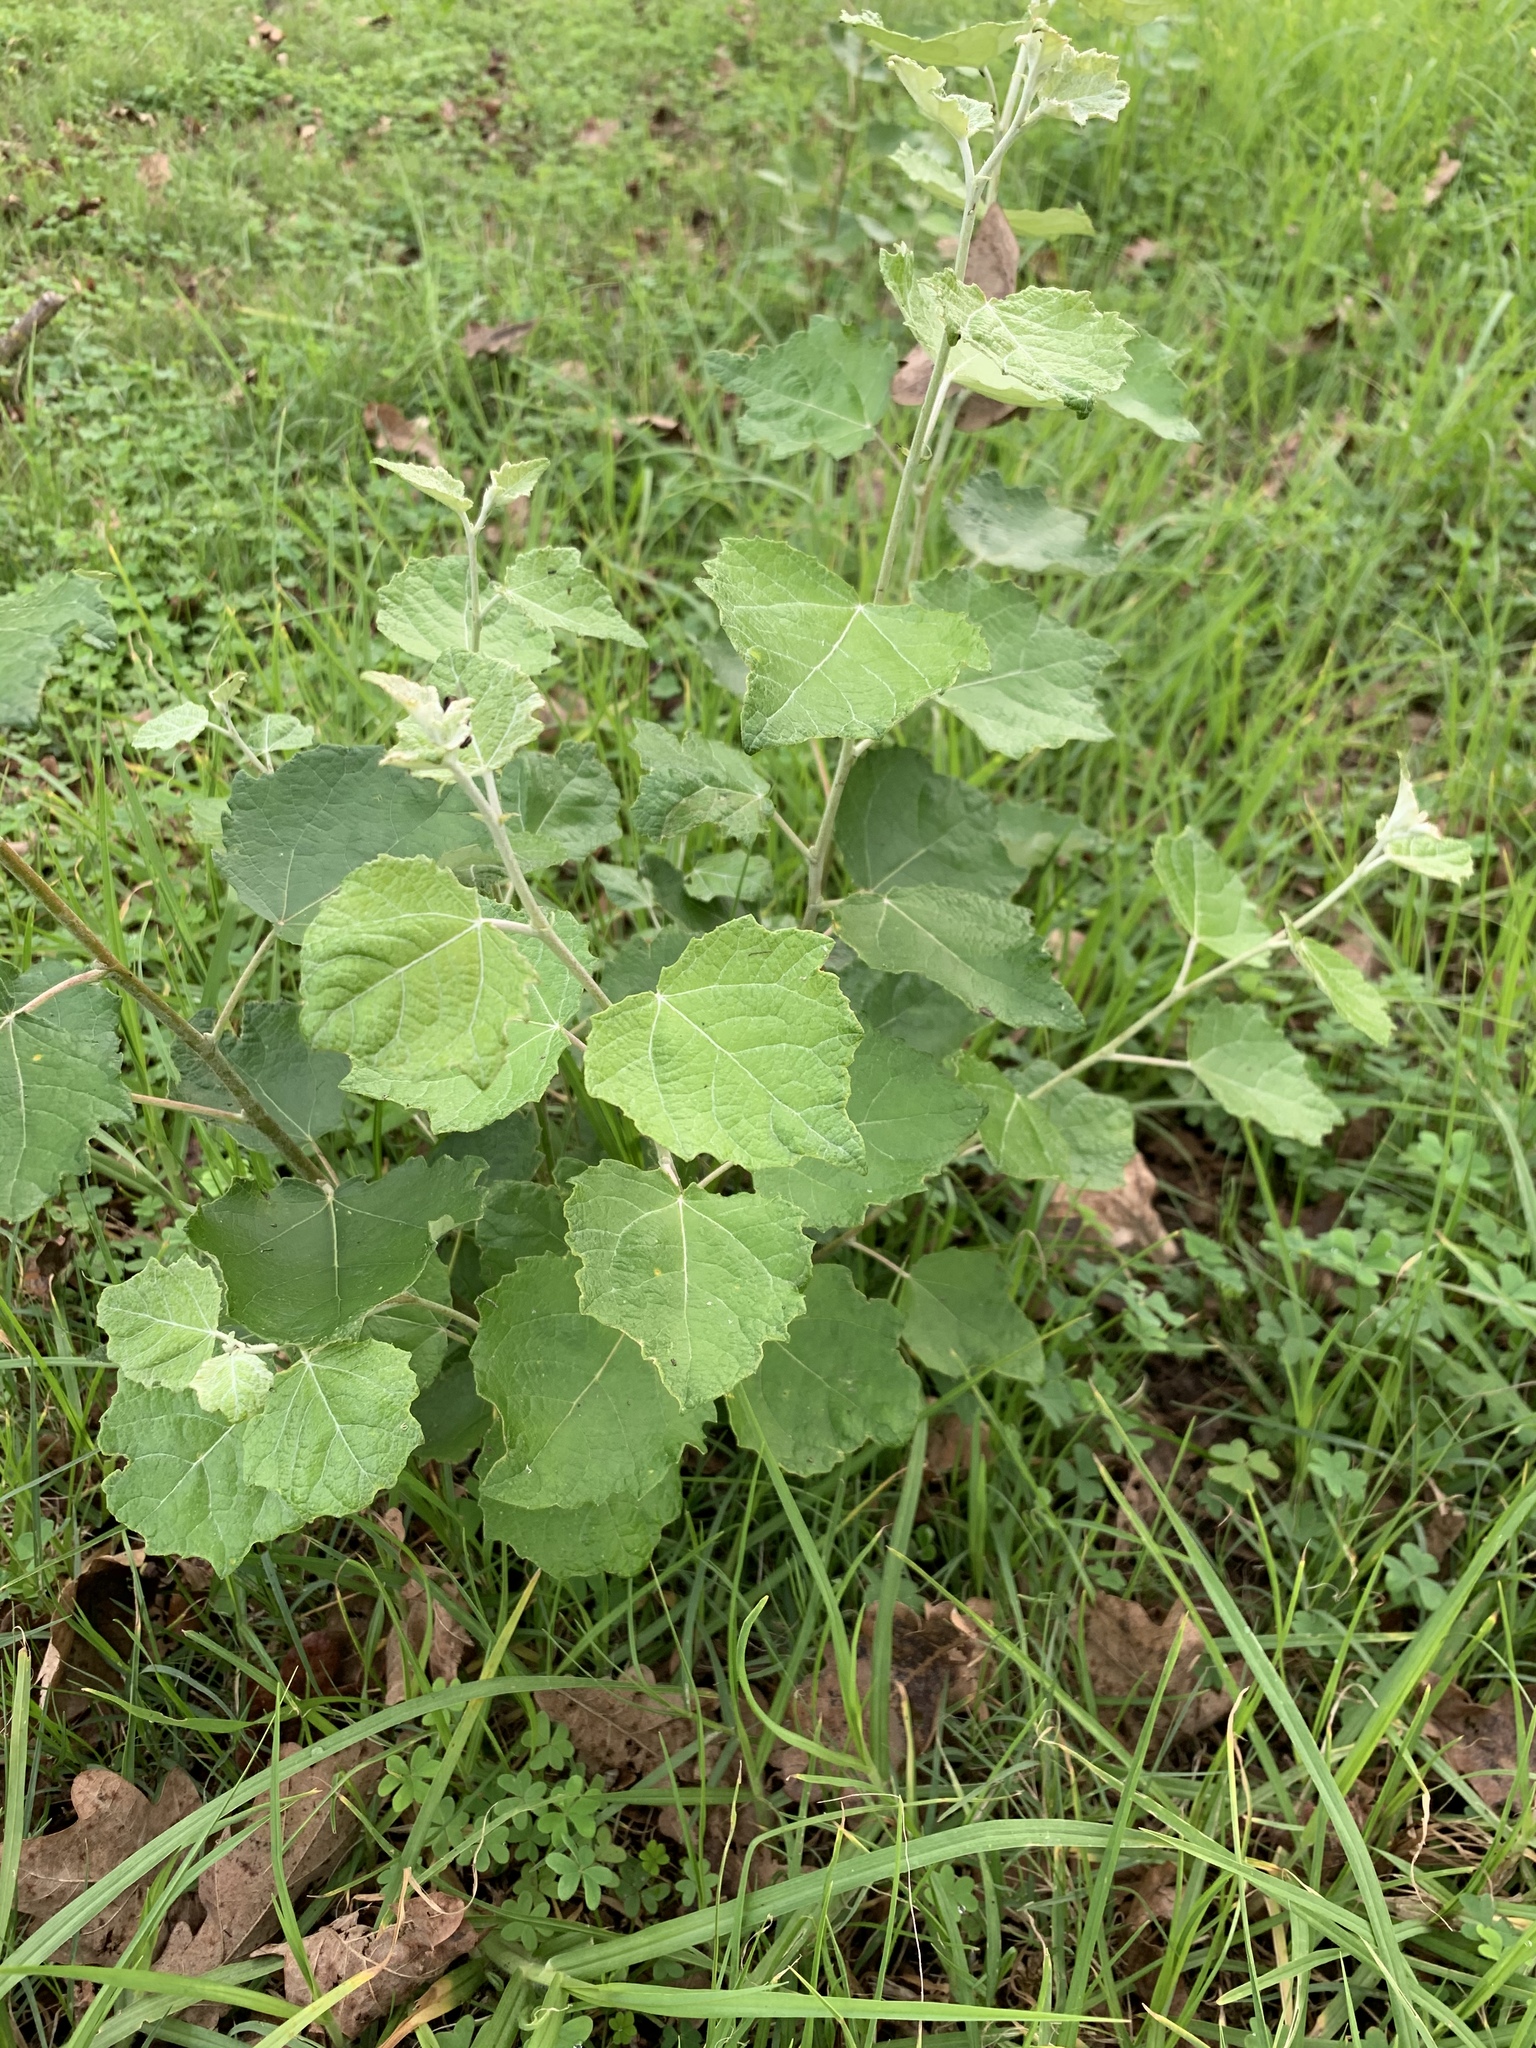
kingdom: Plantae
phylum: Tracheophyta
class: Magnoliopsida
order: Malpighiales
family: Salicaceae
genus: Populus
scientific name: Populus canescens
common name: Gray poplar
